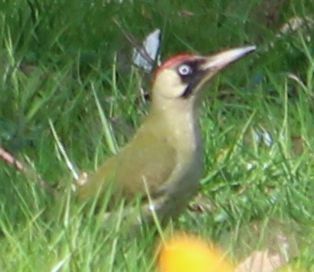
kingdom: Animalia
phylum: Chordata
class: Aves
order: Piciformes
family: Picidae
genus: Picus
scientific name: Picus viridis
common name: European green woodpecker
